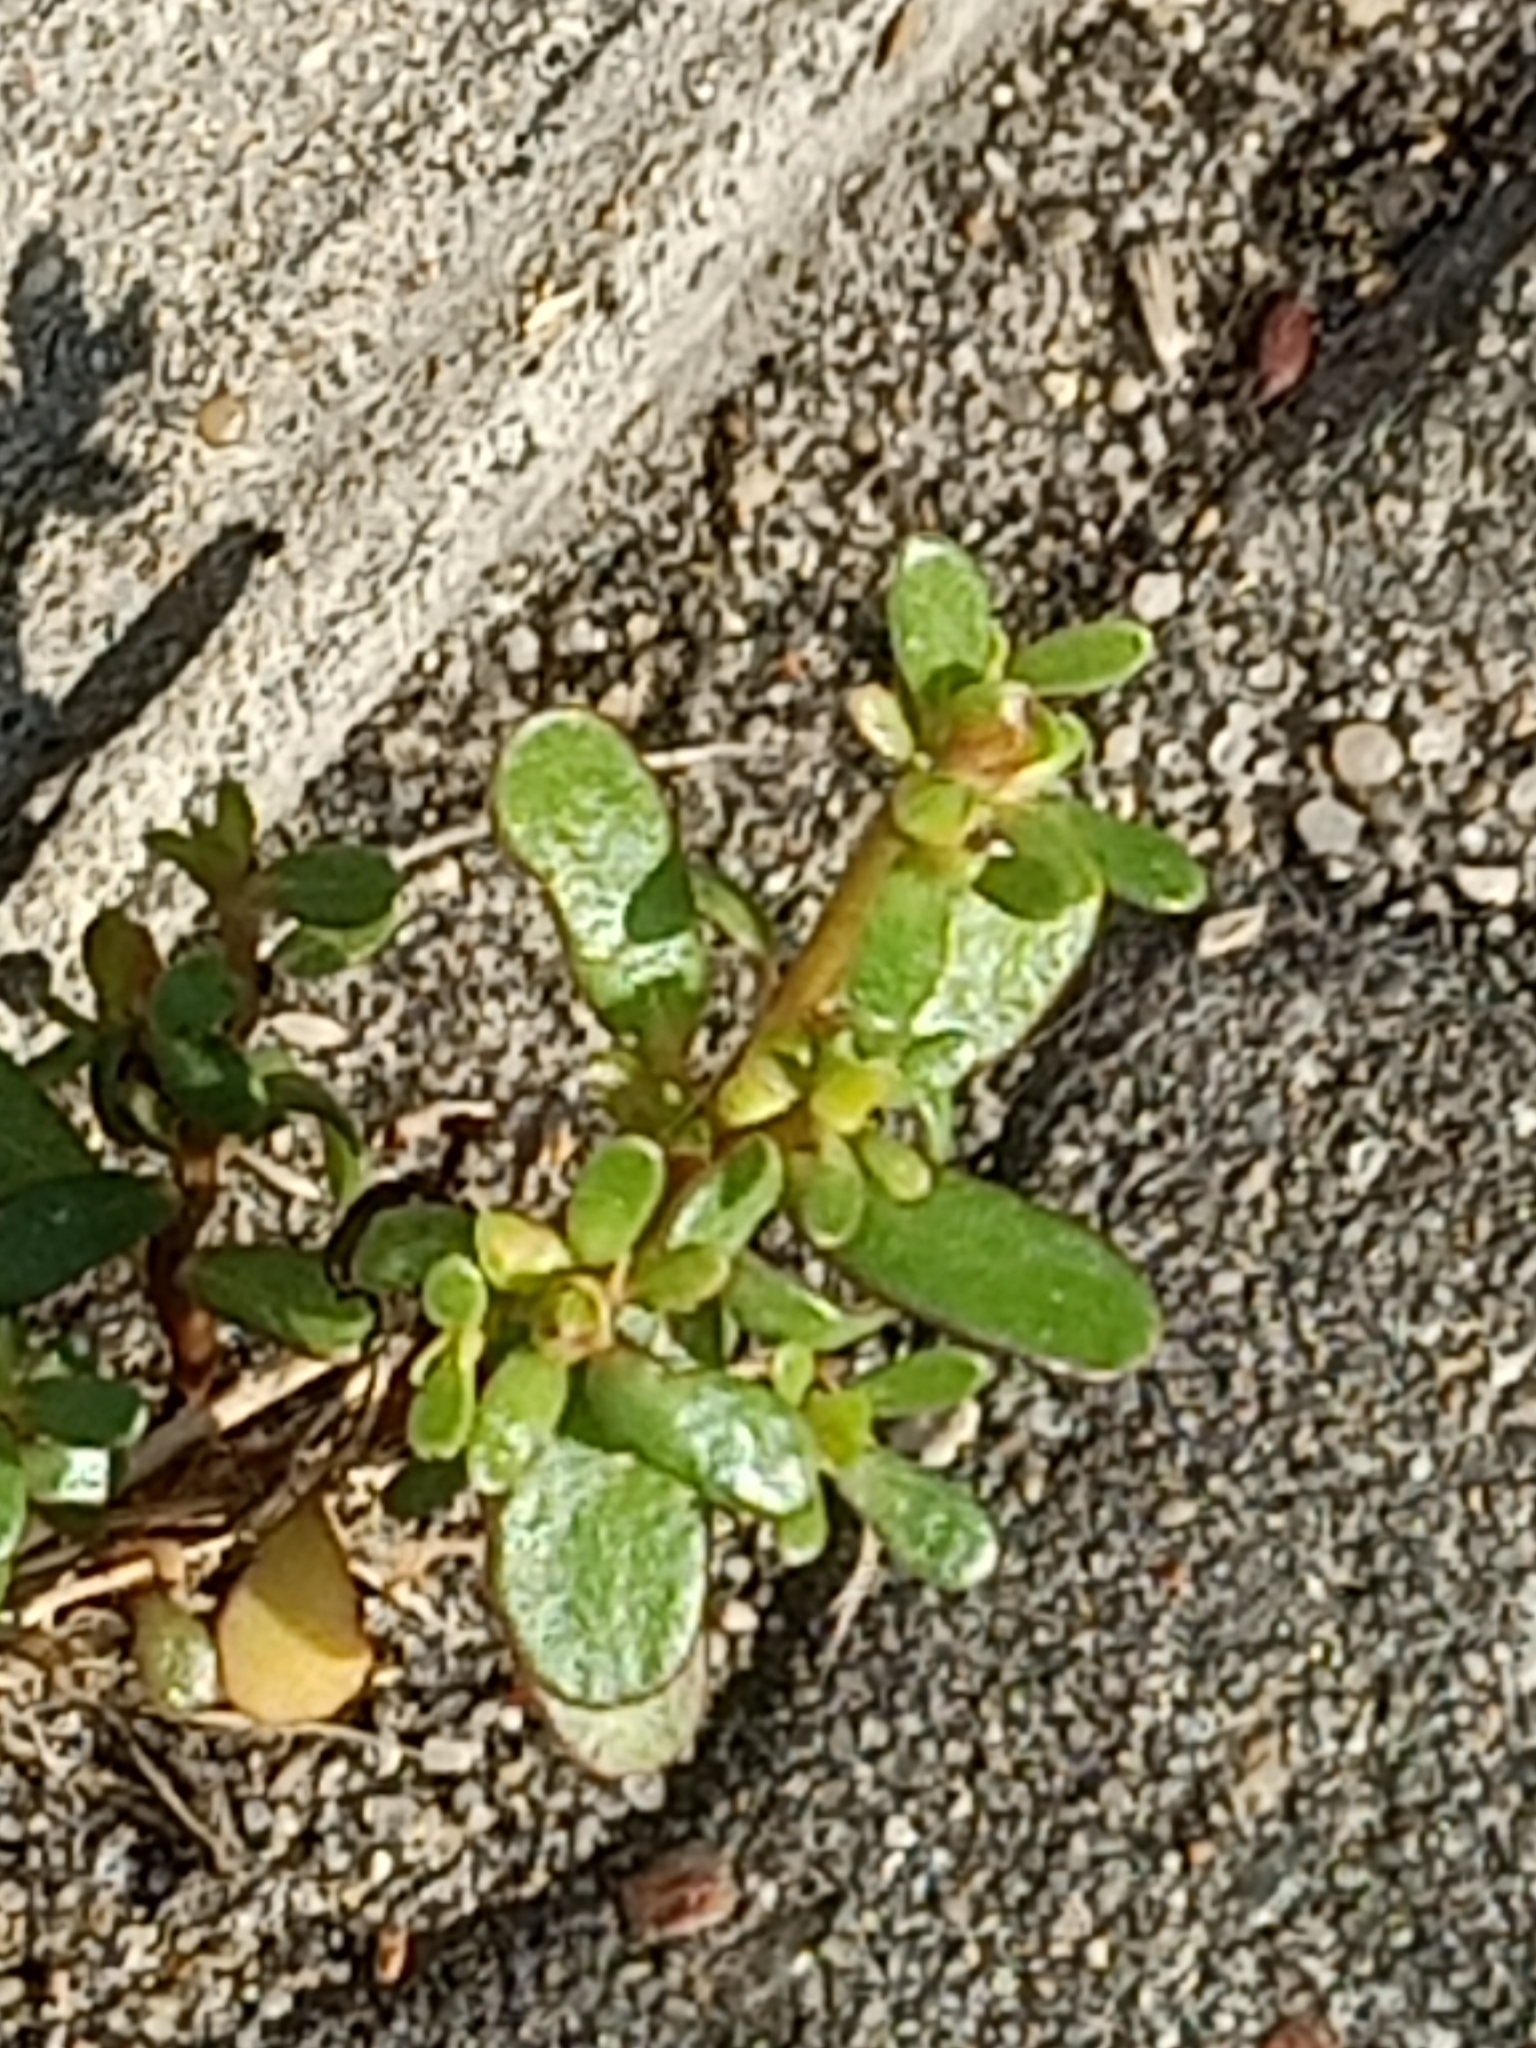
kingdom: Plantae
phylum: Tracheophyta
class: Magnoliopsida
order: Caryophyllales
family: Portulacaceae
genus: Portulaca
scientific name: Portulaca oleracea
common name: Common purslane
